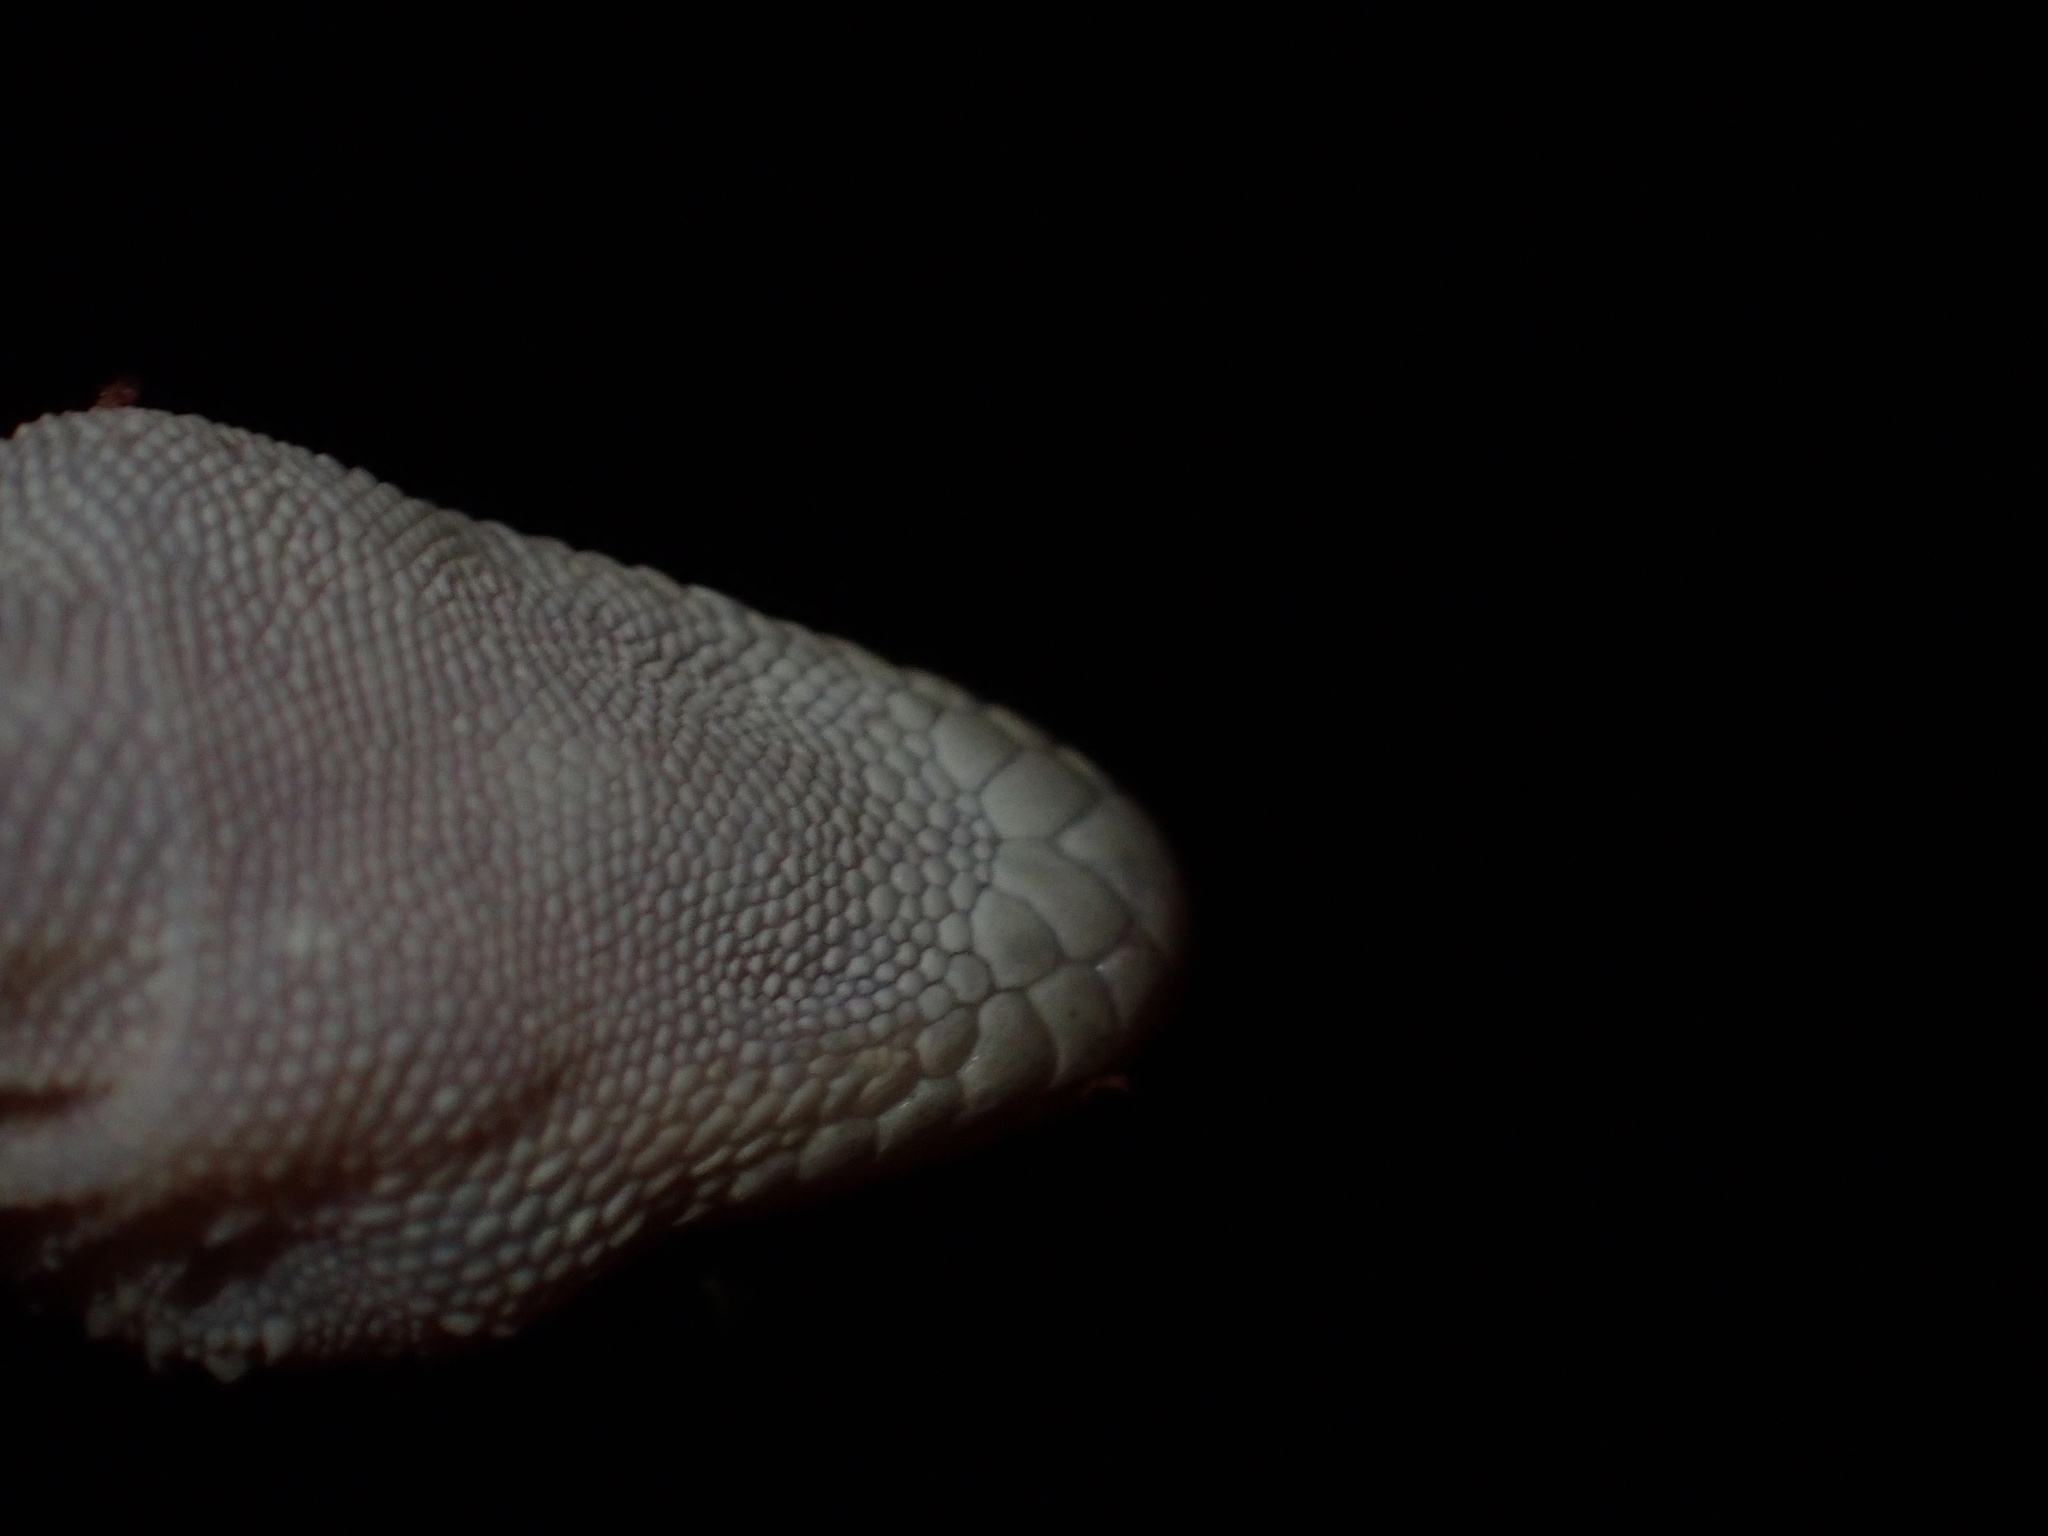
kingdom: Animalia
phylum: Chordata
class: Squamata
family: Gekkonidae
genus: Cyrtopodion
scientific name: Cyrtopodion scabrum
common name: Rough-tailed gecko
